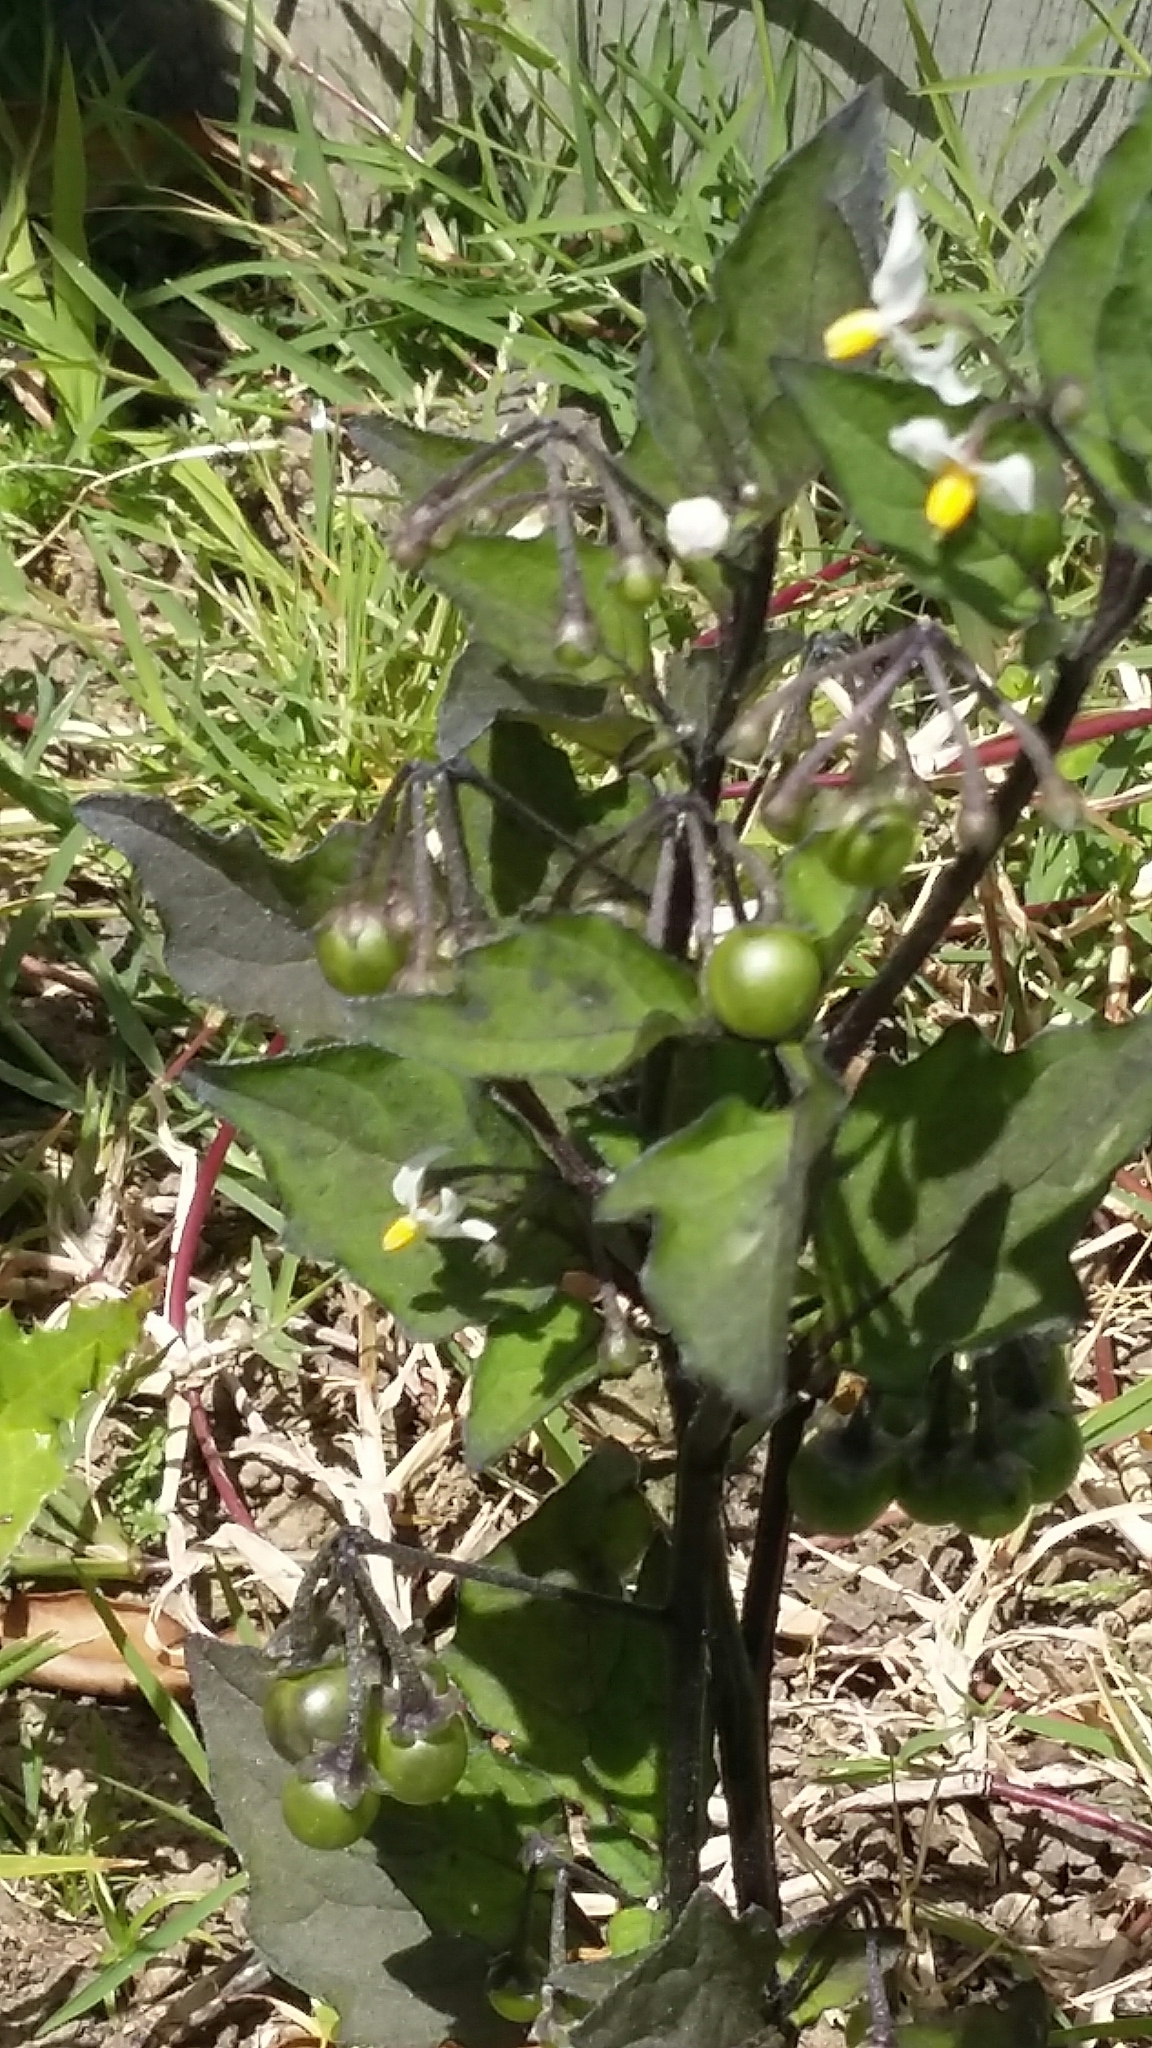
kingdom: Plantae
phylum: Tracheophyta
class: Magnoliopsida
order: Solanales
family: Solanaceae
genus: Solanum
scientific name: Solanum nigrum
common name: Black nightshade
